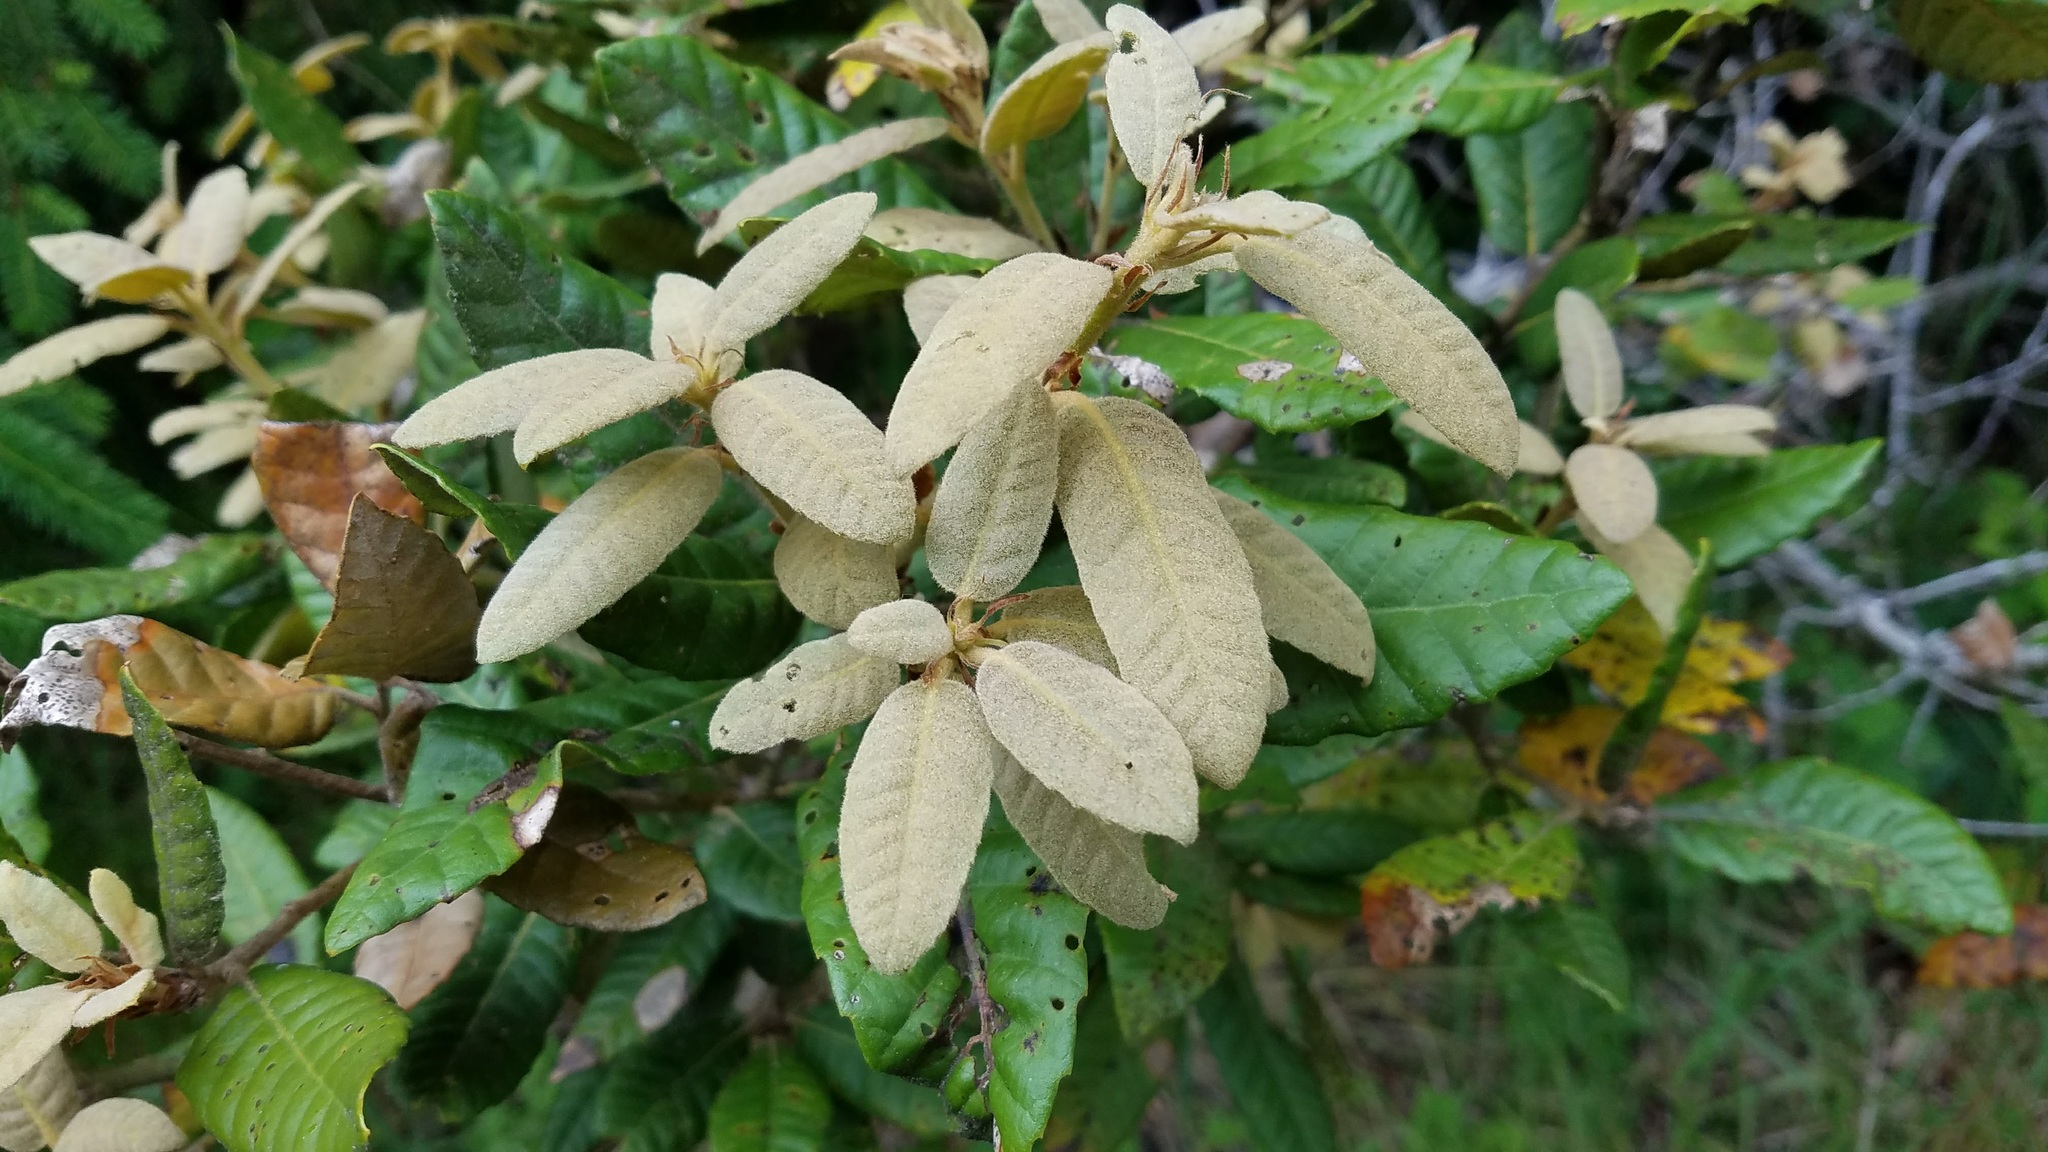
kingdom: Plantae
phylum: Tracheophyta
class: Magnoliopsida
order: Fagales
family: Fagaceae
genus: Notholithocarpus
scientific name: Notholithocarpus densiflorus
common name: Tan bark oak
